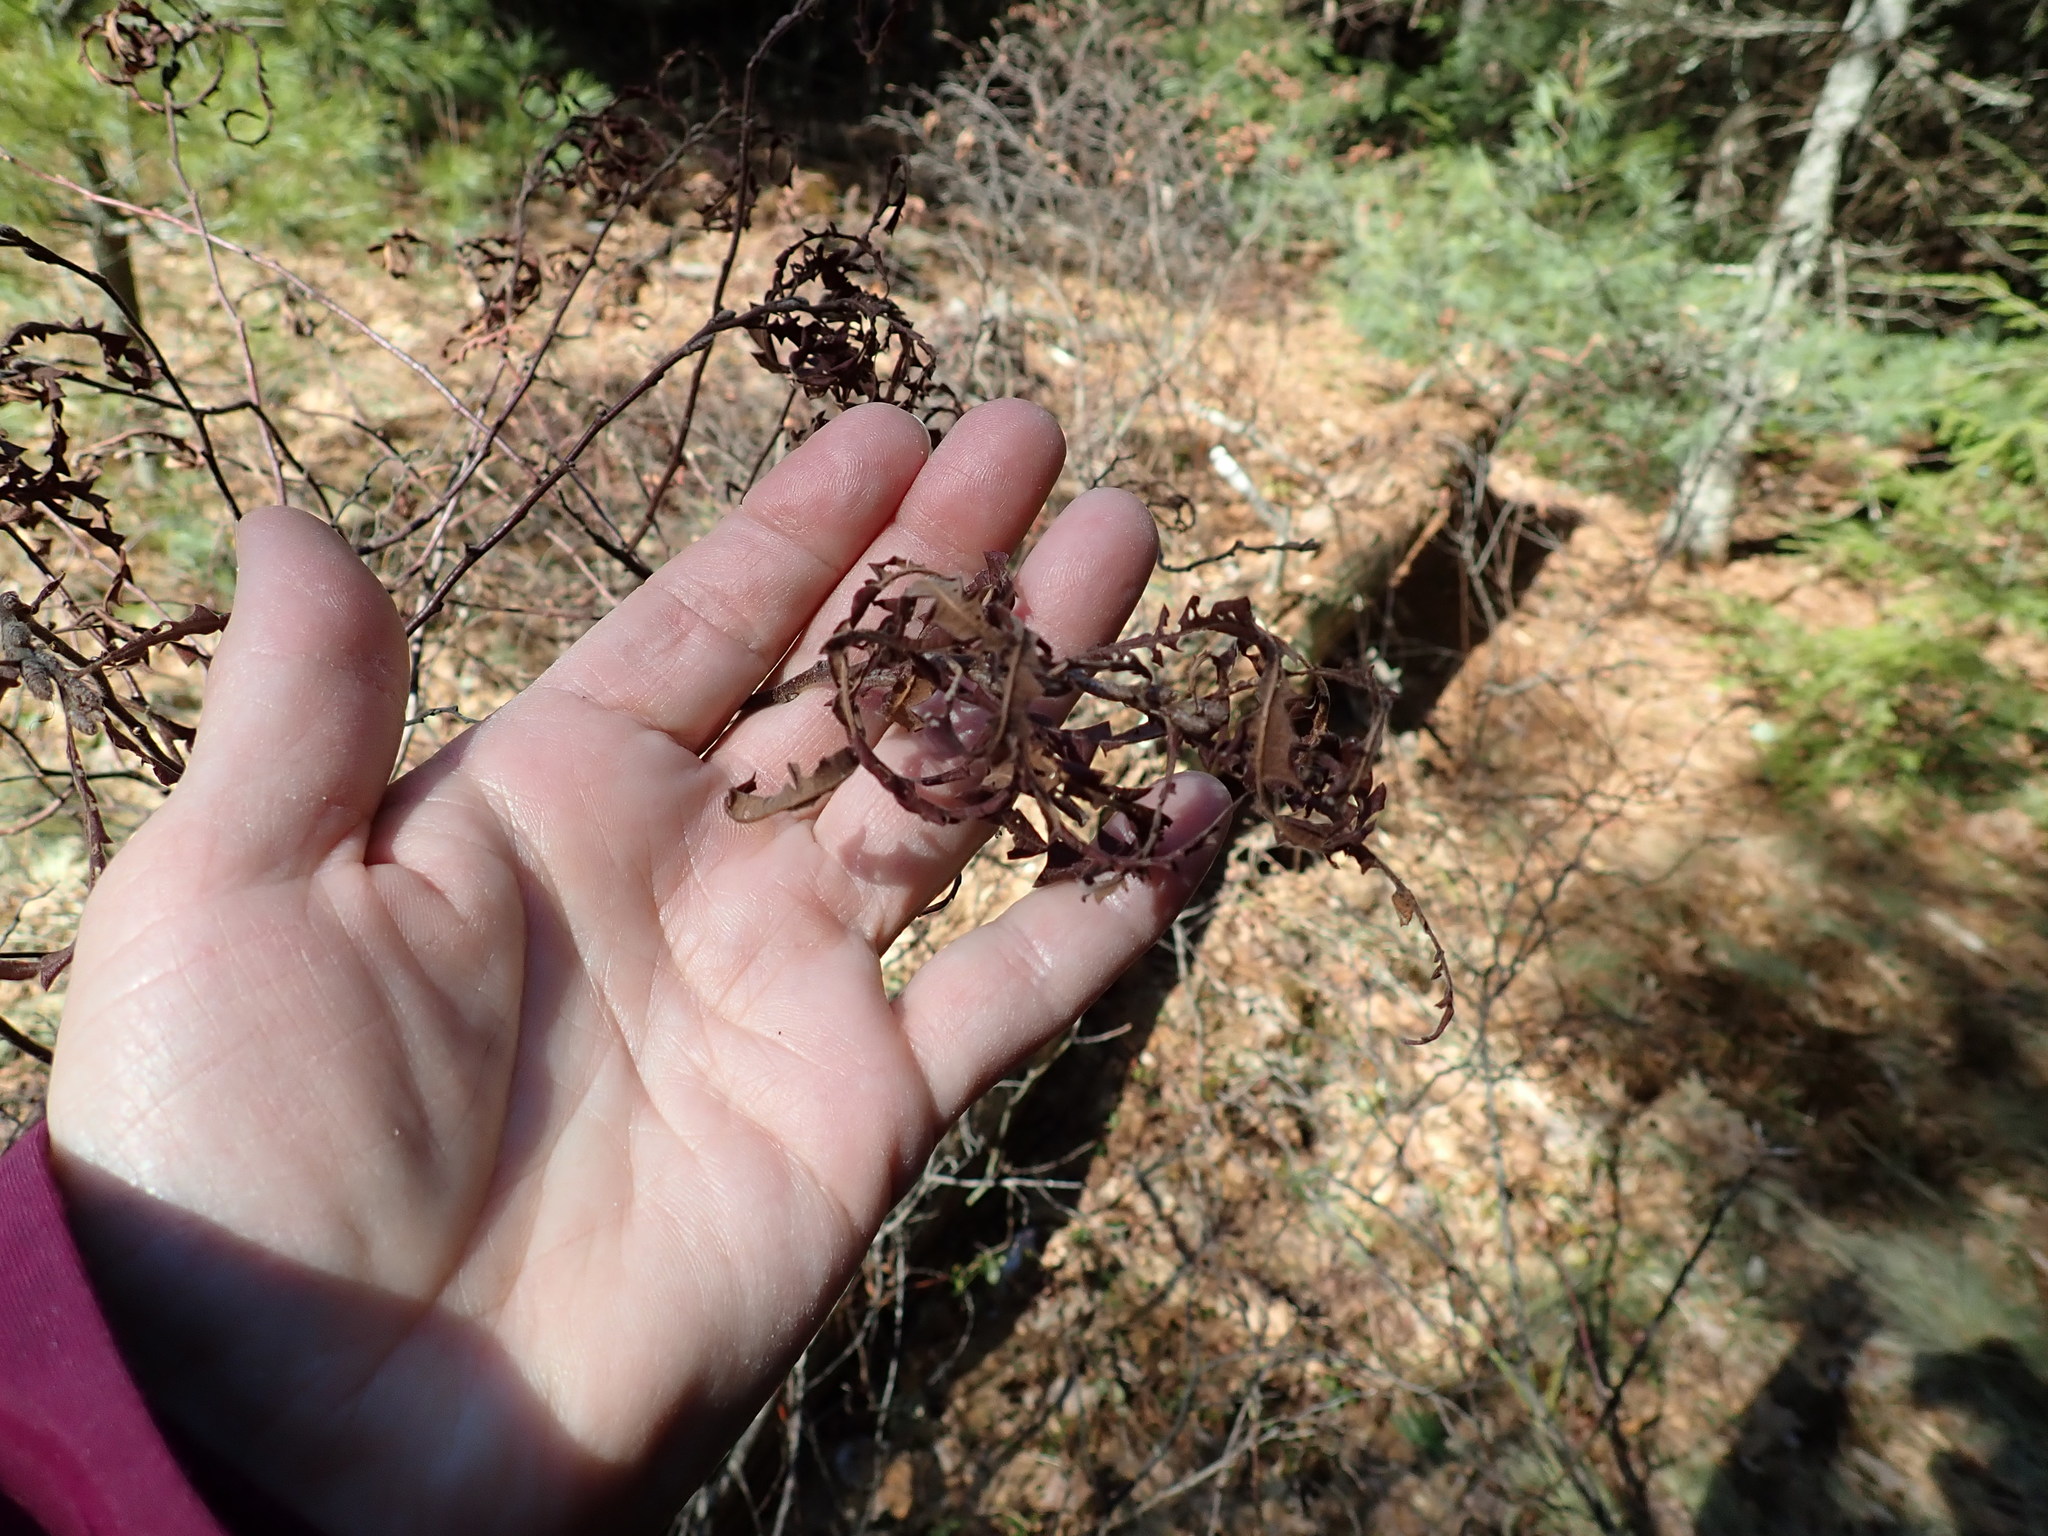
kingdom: Plantae
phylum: Tracheophyta
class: Magnoliopsida
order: Fagales
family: Myricaceae
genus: Comptonia
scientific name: Comptonia peregrina
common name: Sweet-fern
